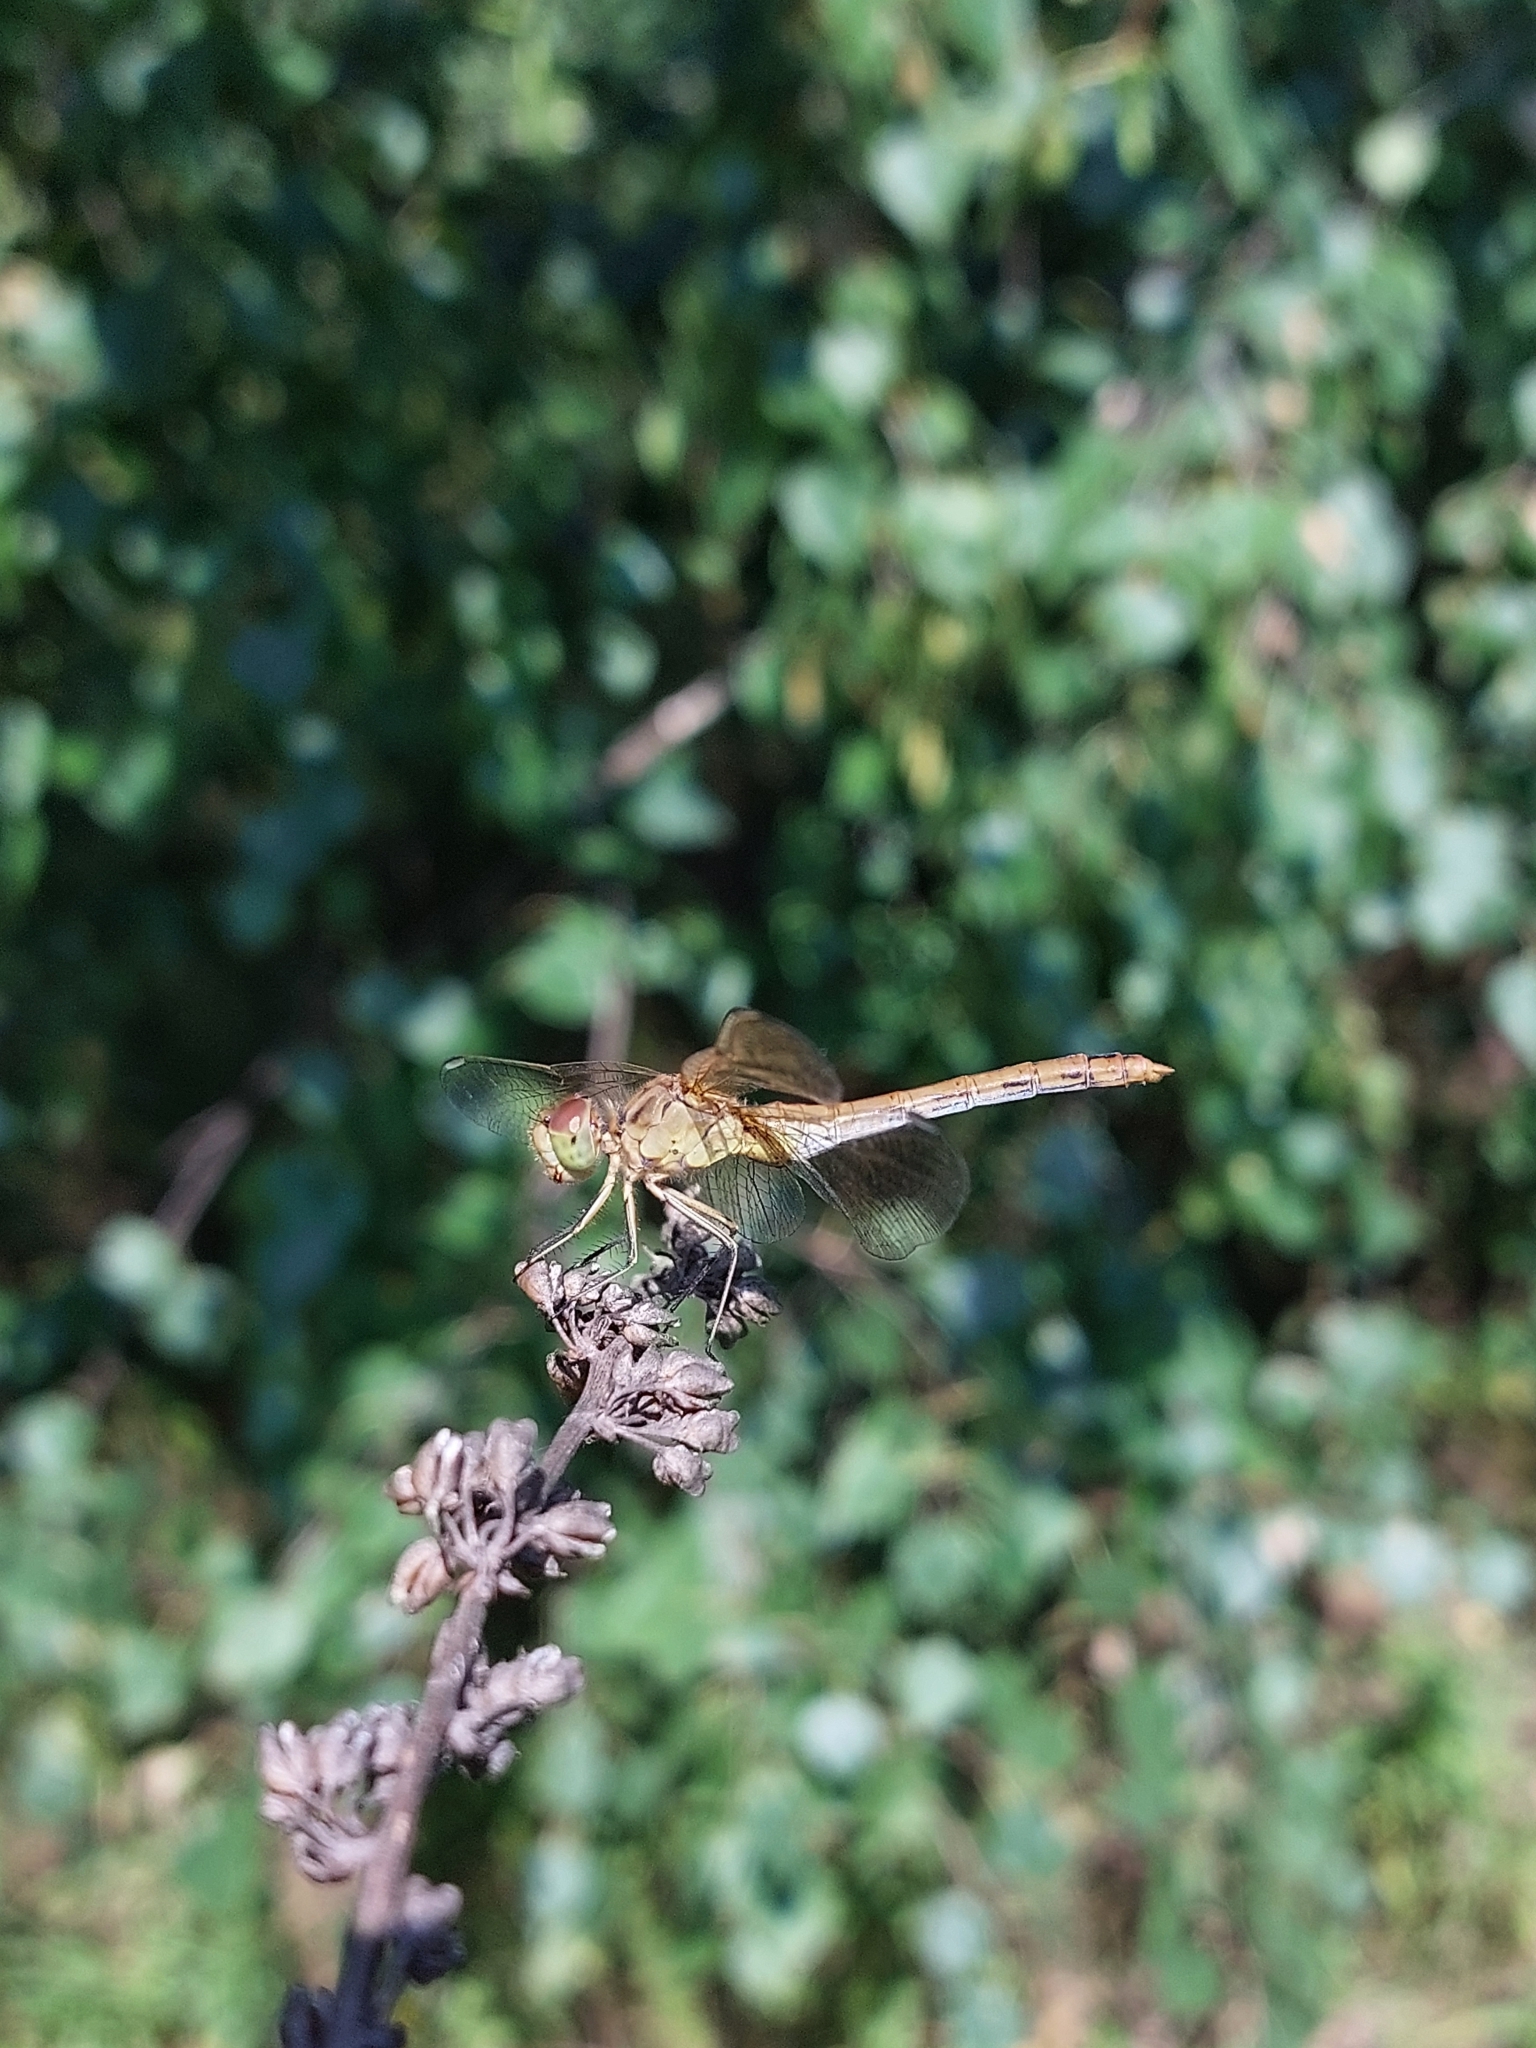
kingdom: Animalia
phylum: Arthropoda
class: Insecta
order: Odonata
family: Libellulidae
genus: Sympetrum
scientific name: Sympetrum meridionale
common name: Southern darter
